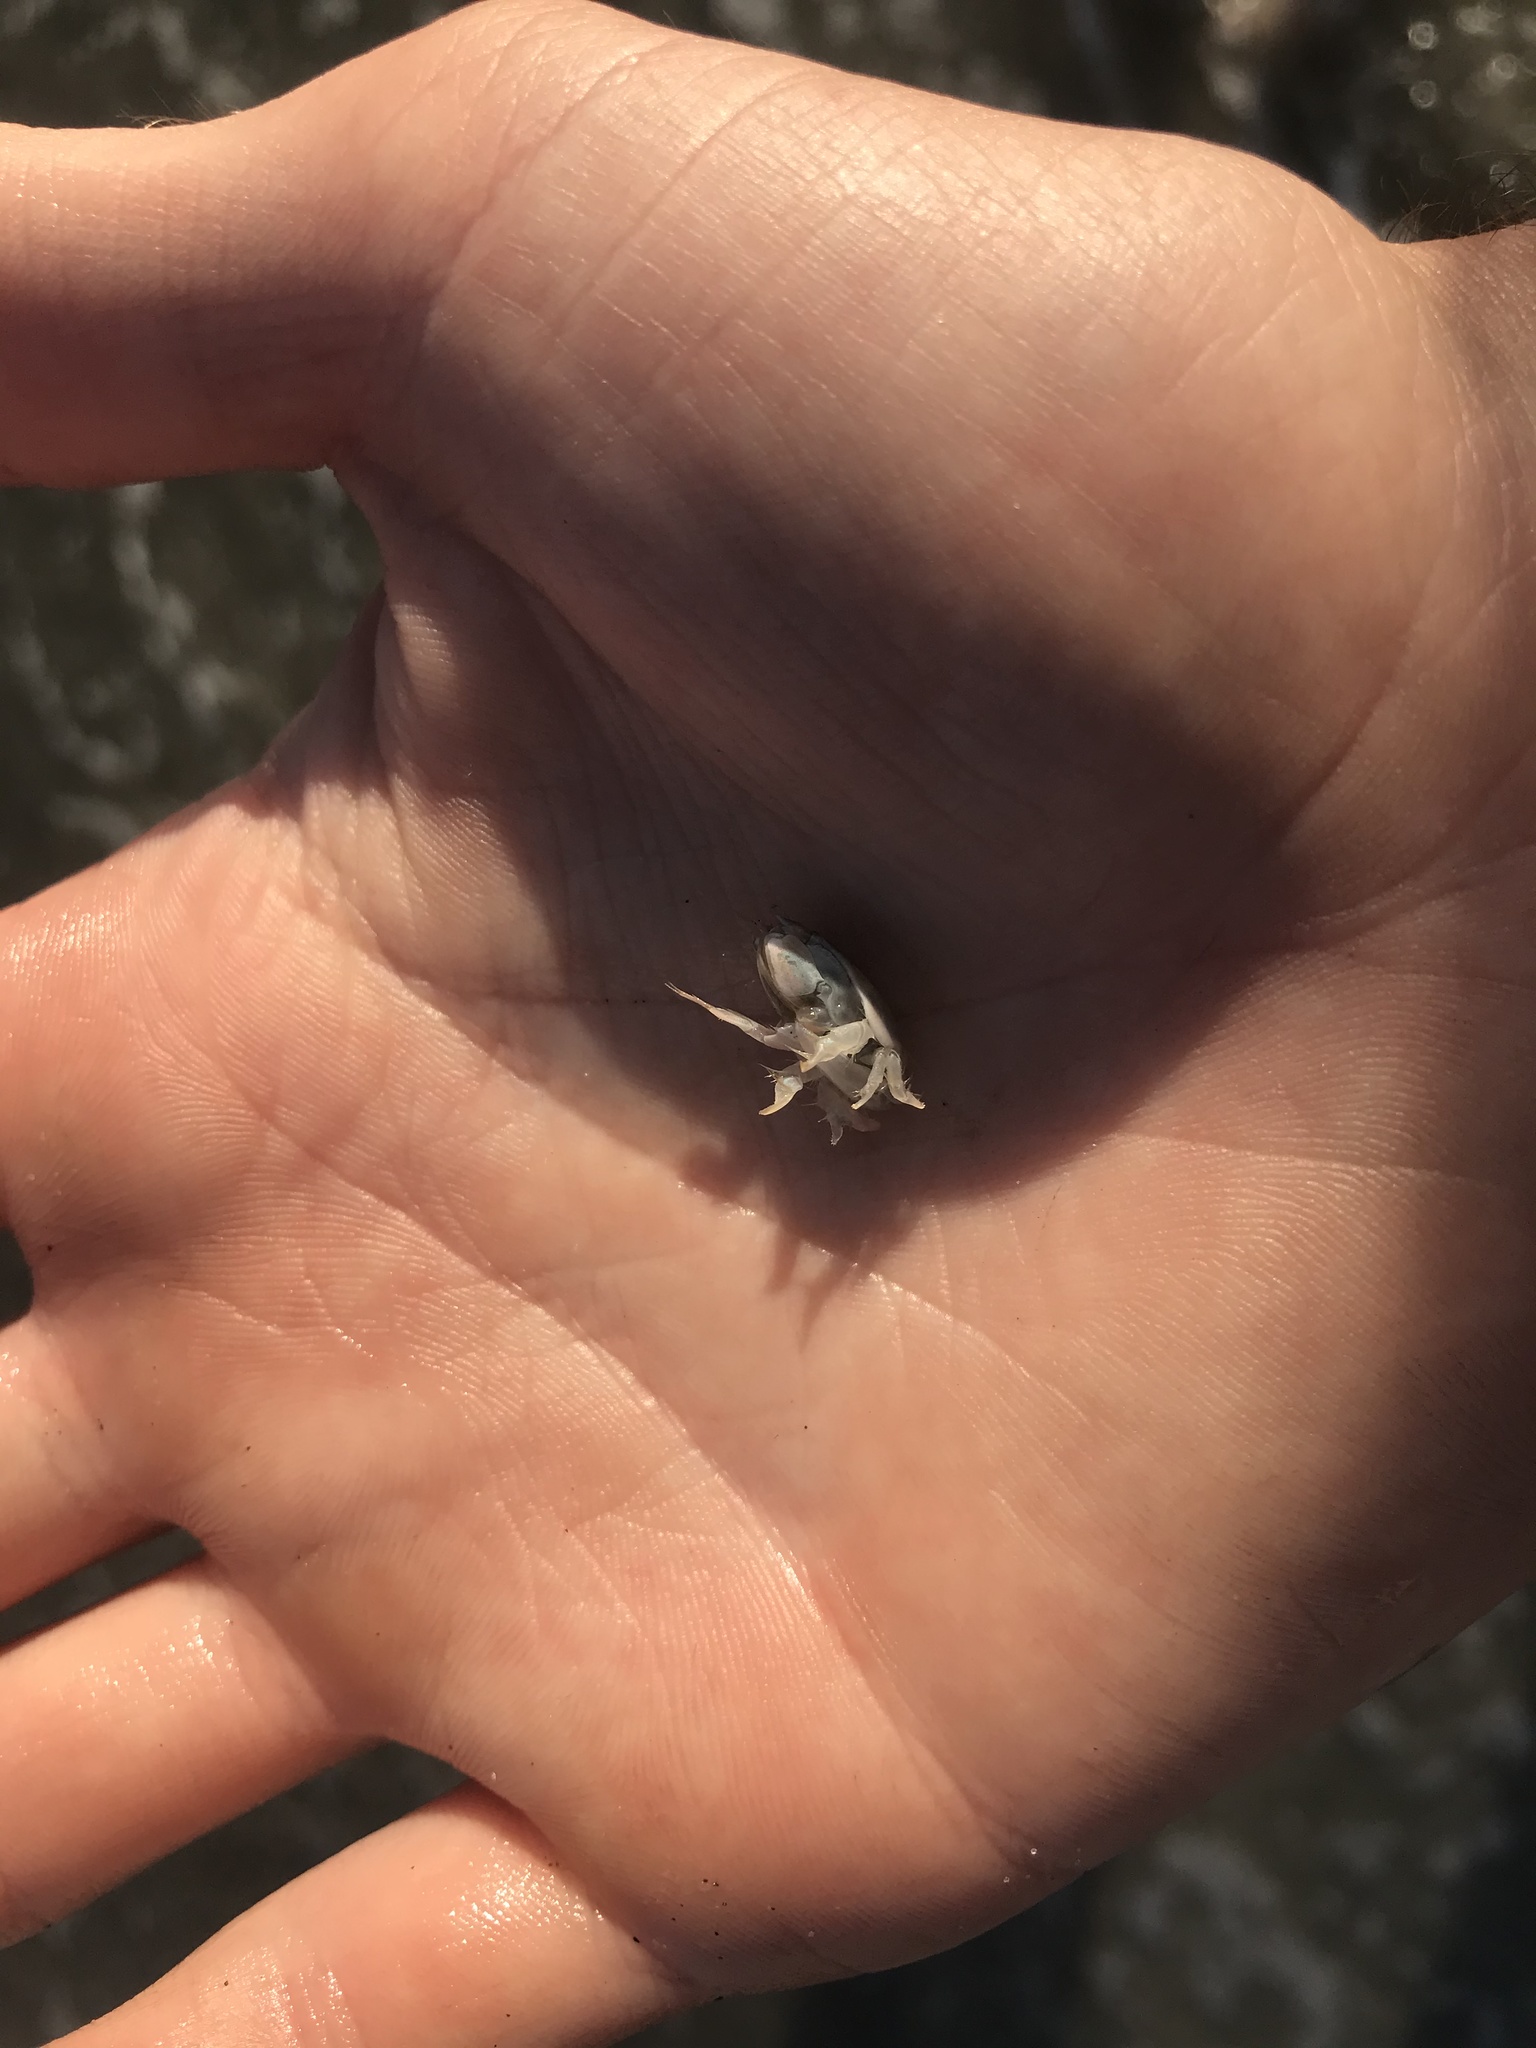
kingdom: Animalia
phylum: Arthropoda
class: Malacostraca
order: Decapoda
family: Hippidae
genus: Emerita
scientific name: Emerita analoga
